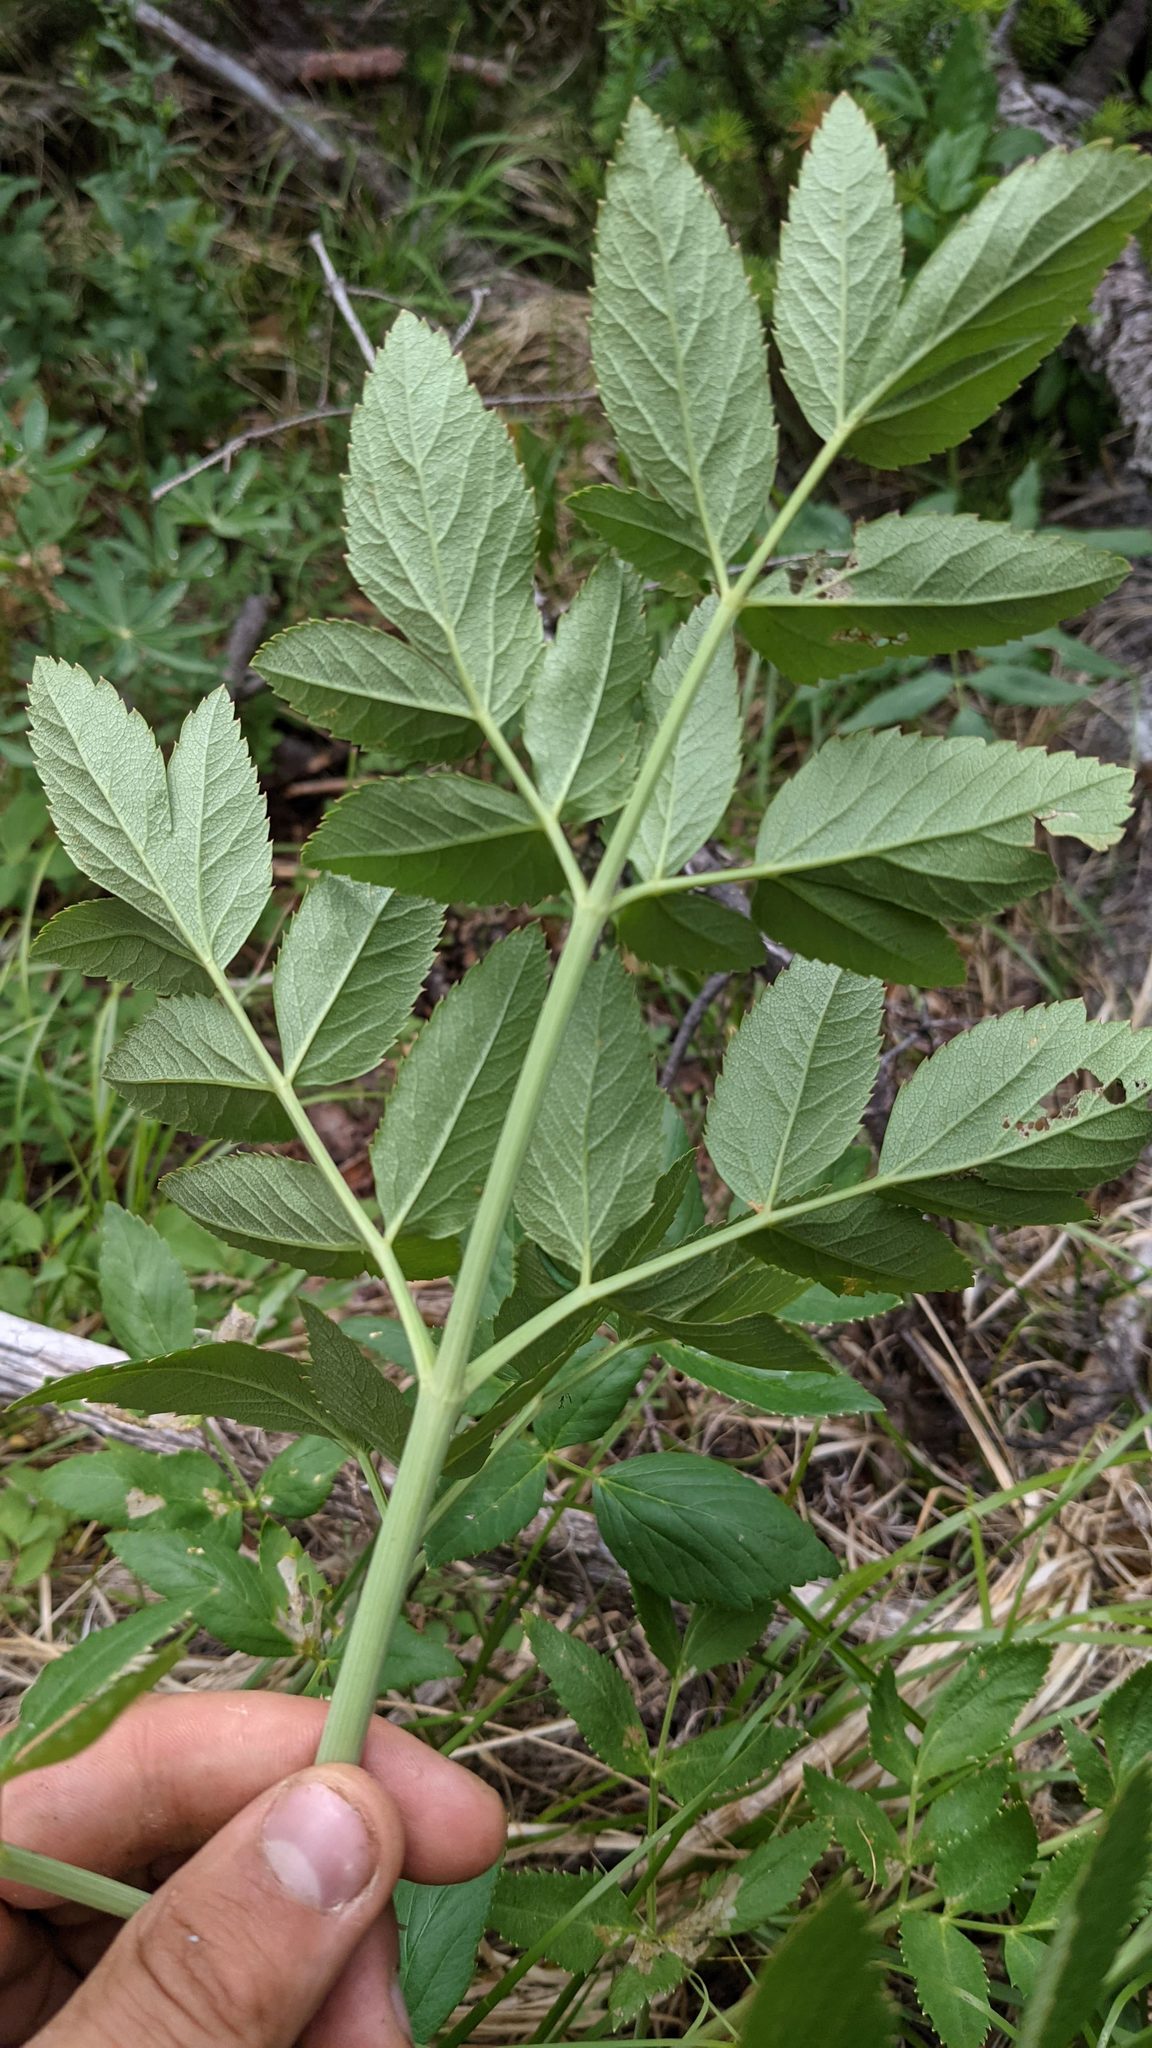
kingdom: Plantae
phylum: Tracheophyta
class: Magnoliopsida
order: Apiales
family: Apiaceae
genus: Angelica
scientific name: Angelica arguta
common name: Lyall's angelica
